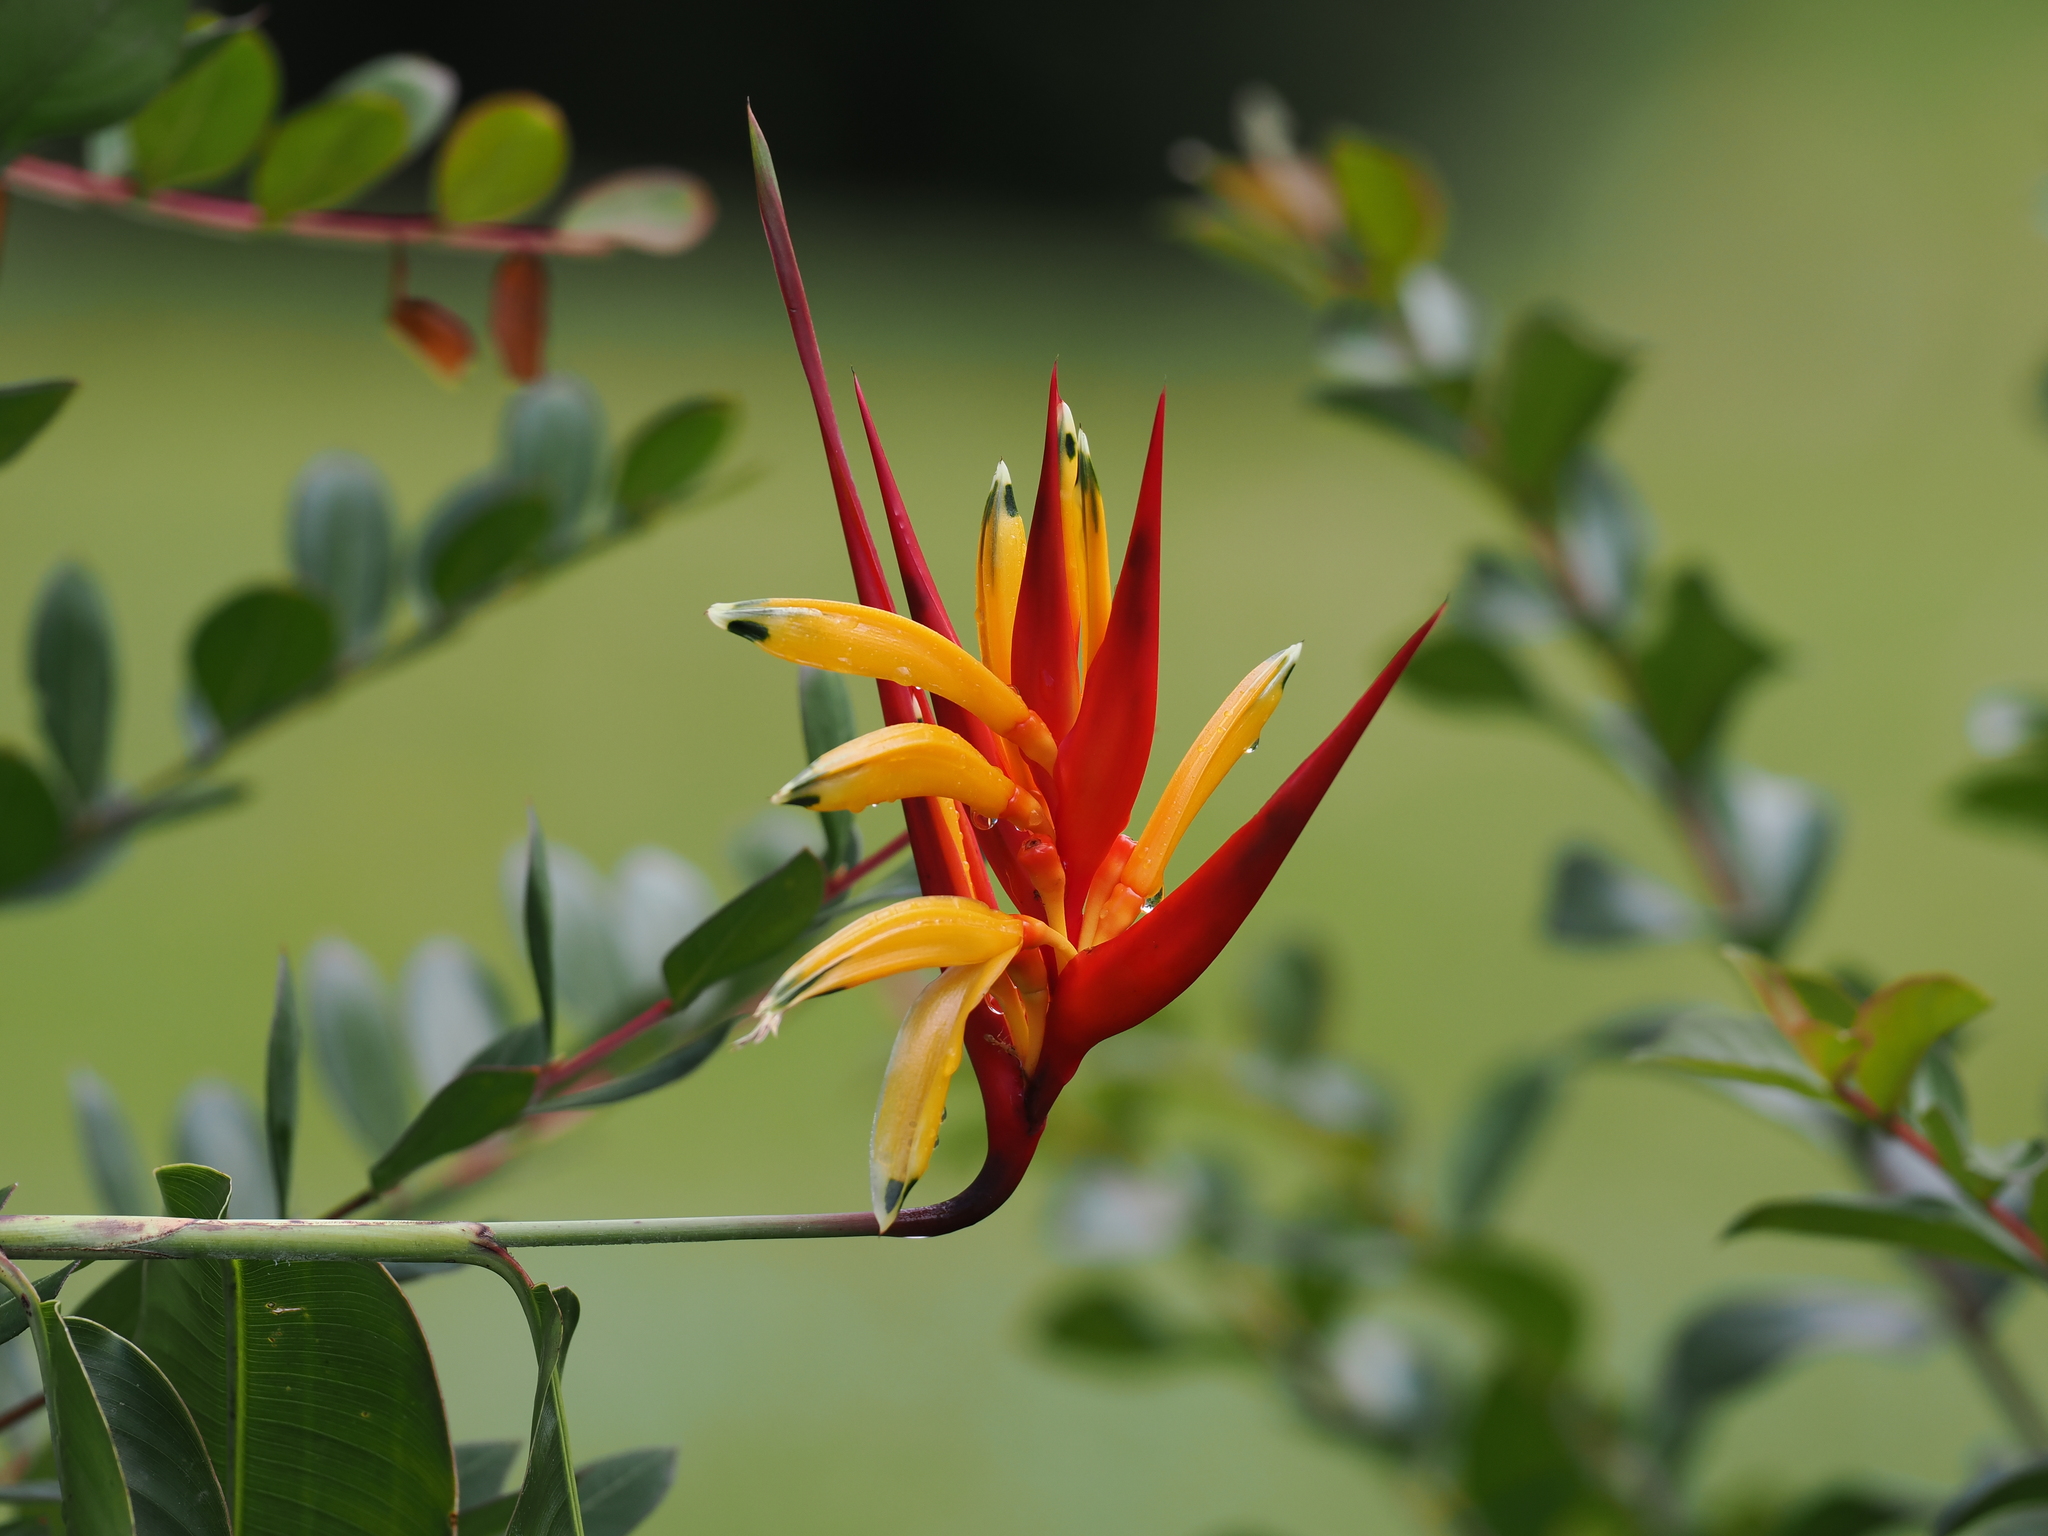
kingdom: Plantae
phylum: Tracheophyta
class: Liliopsida
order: Zingiberales
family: Heliconiaceae
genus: Heliconia
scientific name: Heliconia psittacorum
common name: Parrot's-flower
